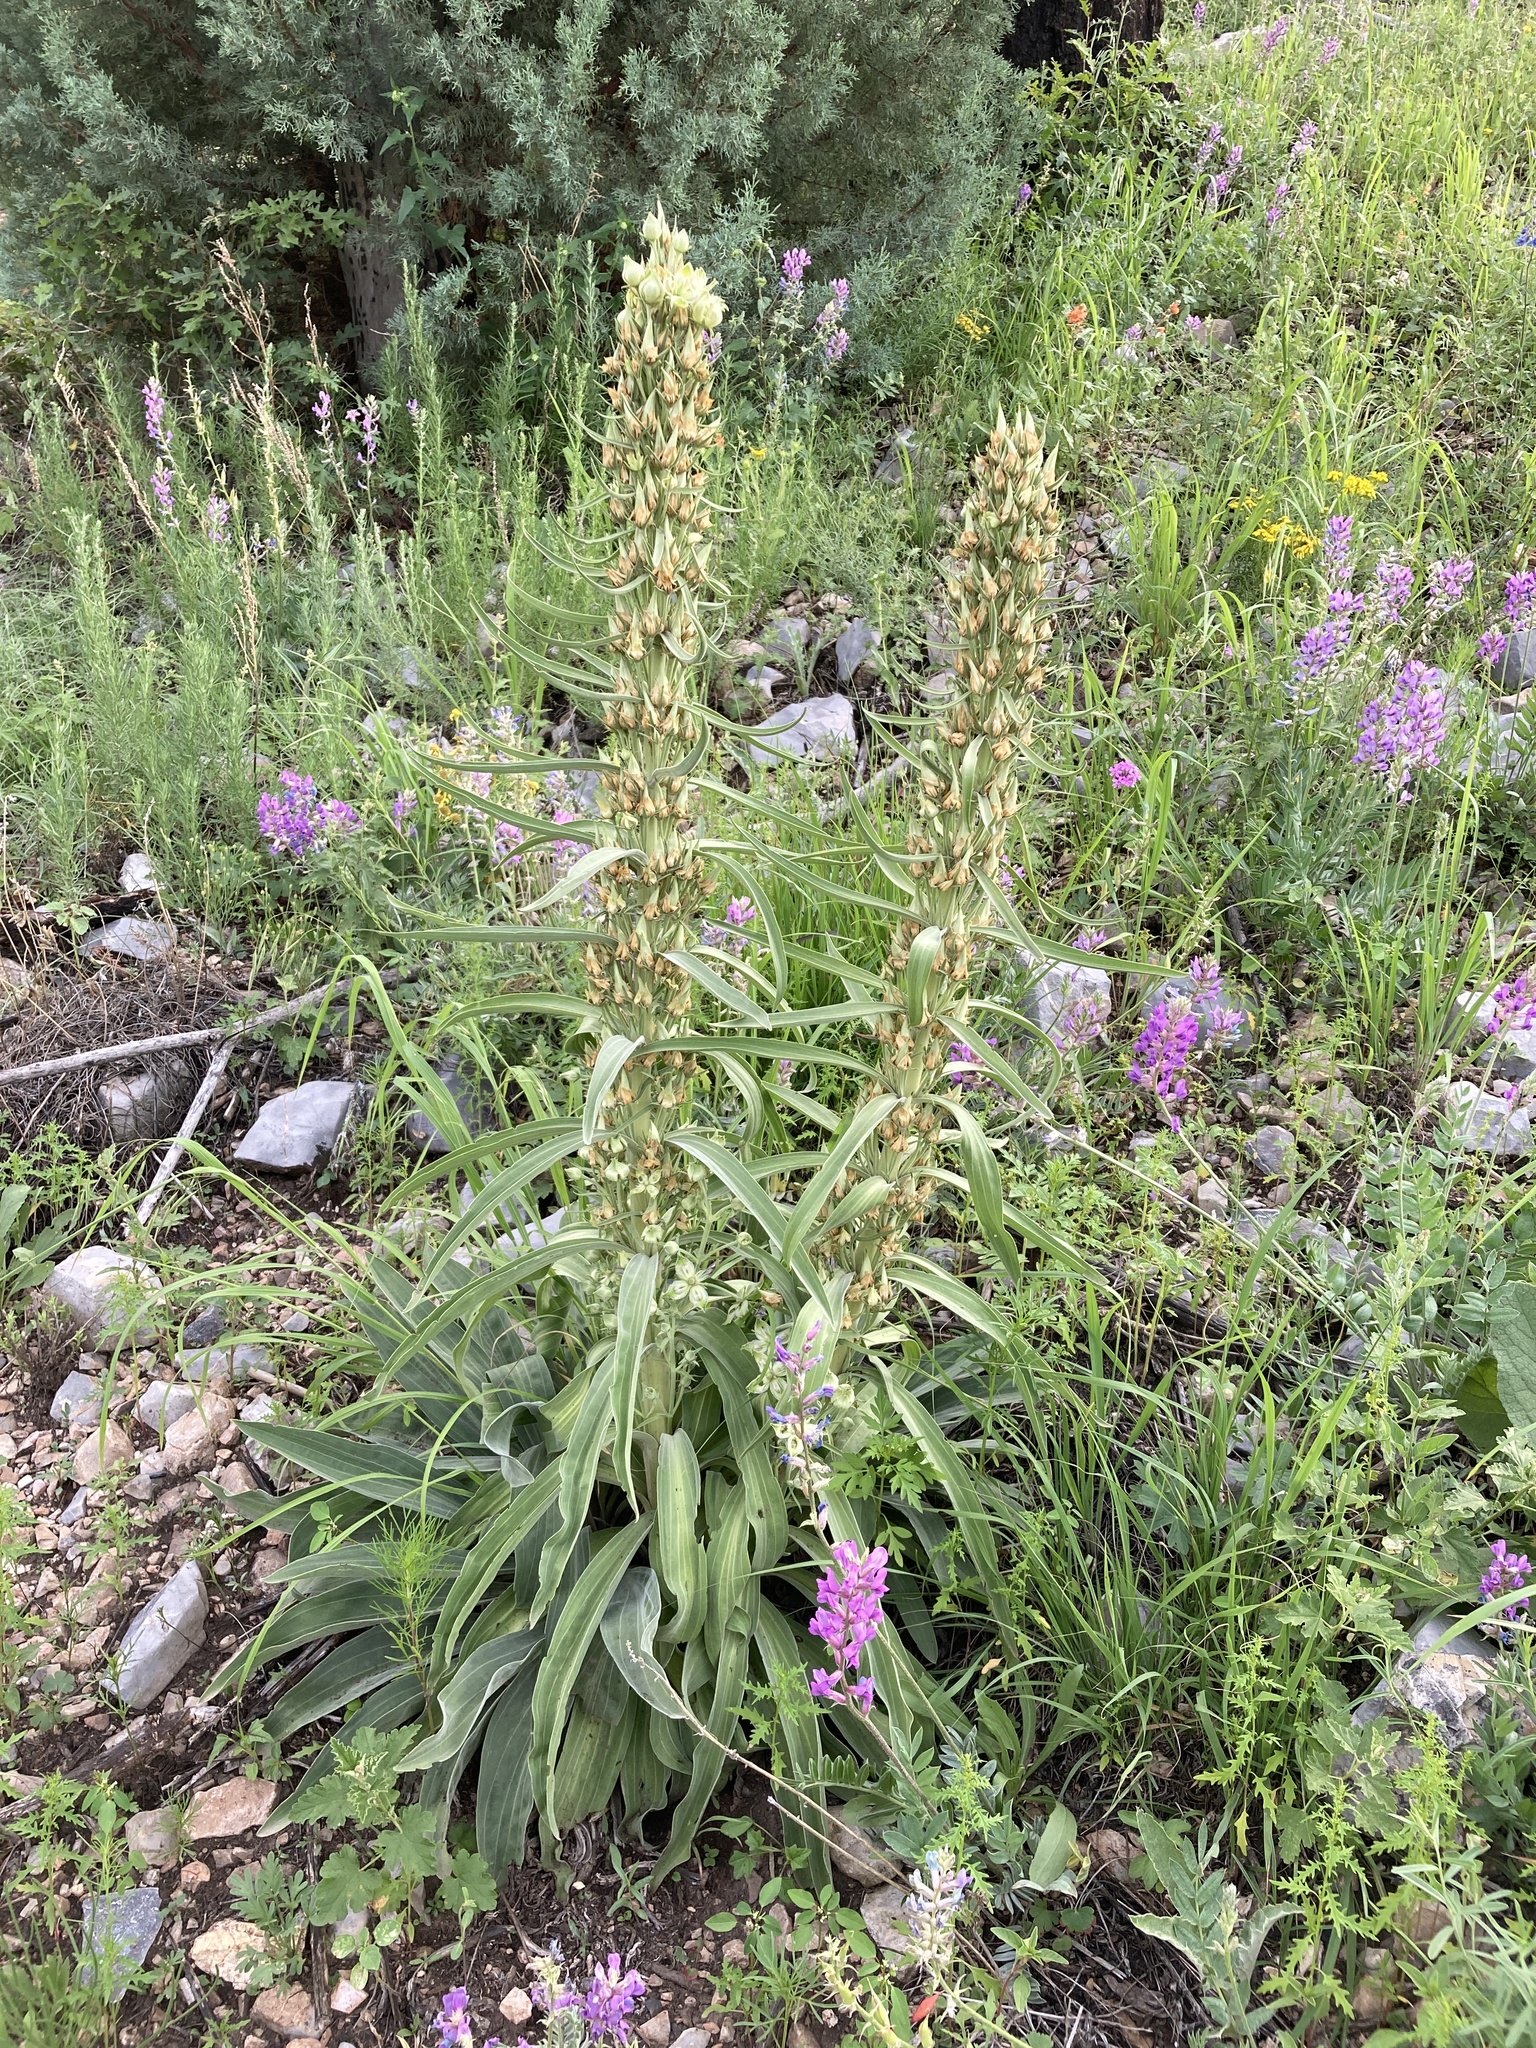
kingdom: Plantae
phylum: Tracheophyta
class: Magnoliopsida
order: Gentianales
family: Gentianaceae
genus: Frasera
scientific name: Frasera speciosa
